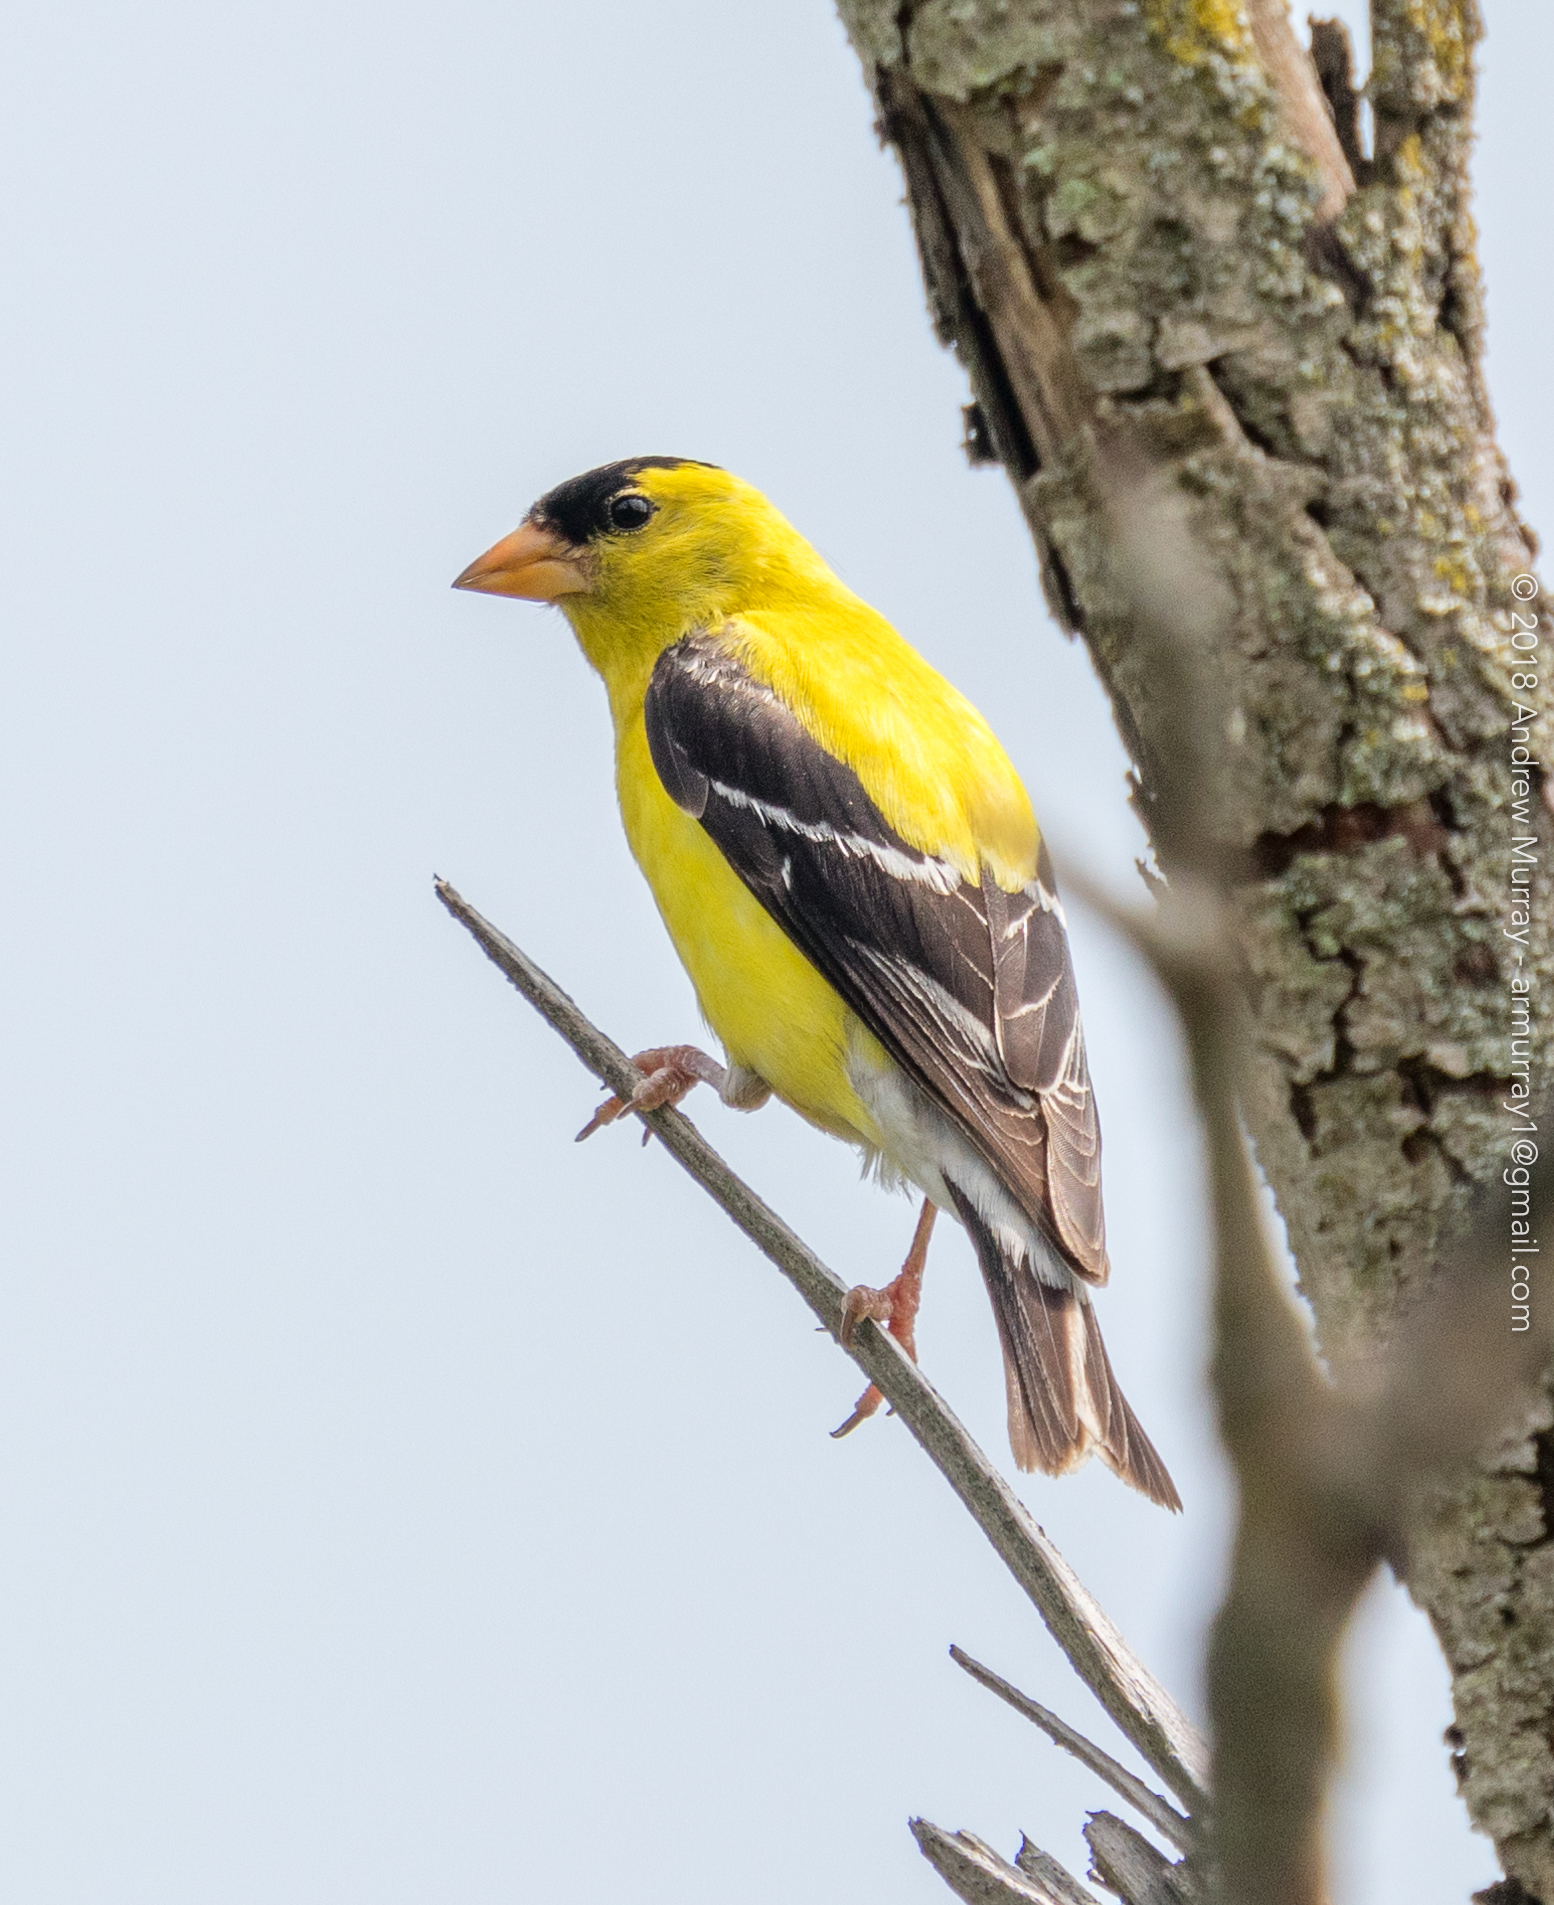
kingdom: Animalia
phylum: Chordata
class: Aves
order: Passeriformes
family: Fringillidae
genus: Spinus
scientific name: Spinus tristis
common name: American goldfinch
